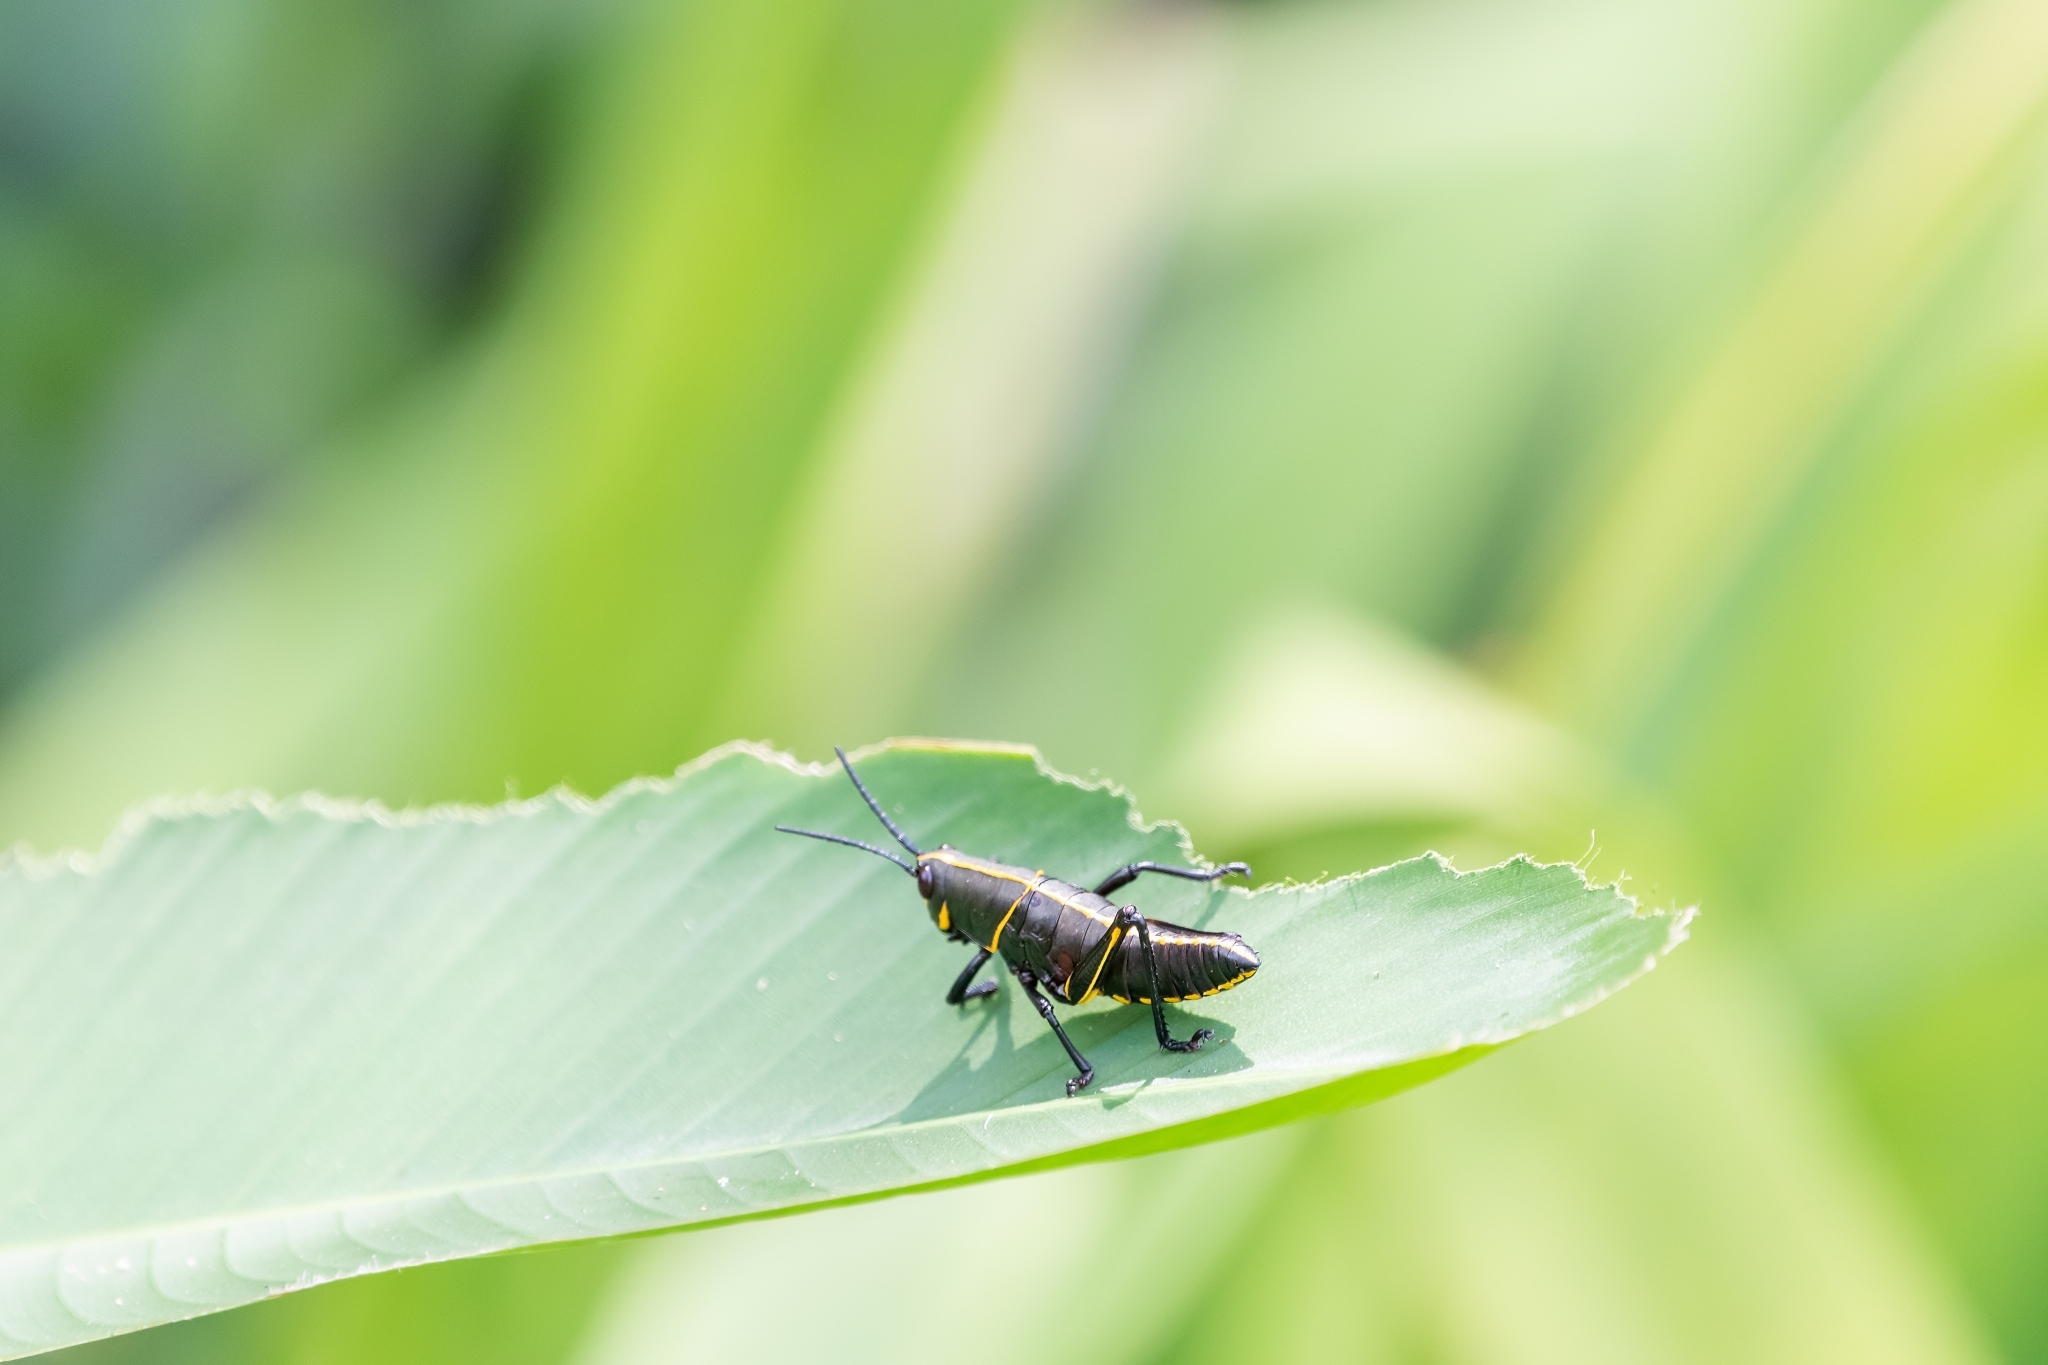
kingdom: Animalia
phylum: Arthropoda
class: Insecta
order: Orthoptera
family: Romaleidae
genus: Romalea
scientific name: Romalea microptera
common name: Eastern lubber grasshopper
